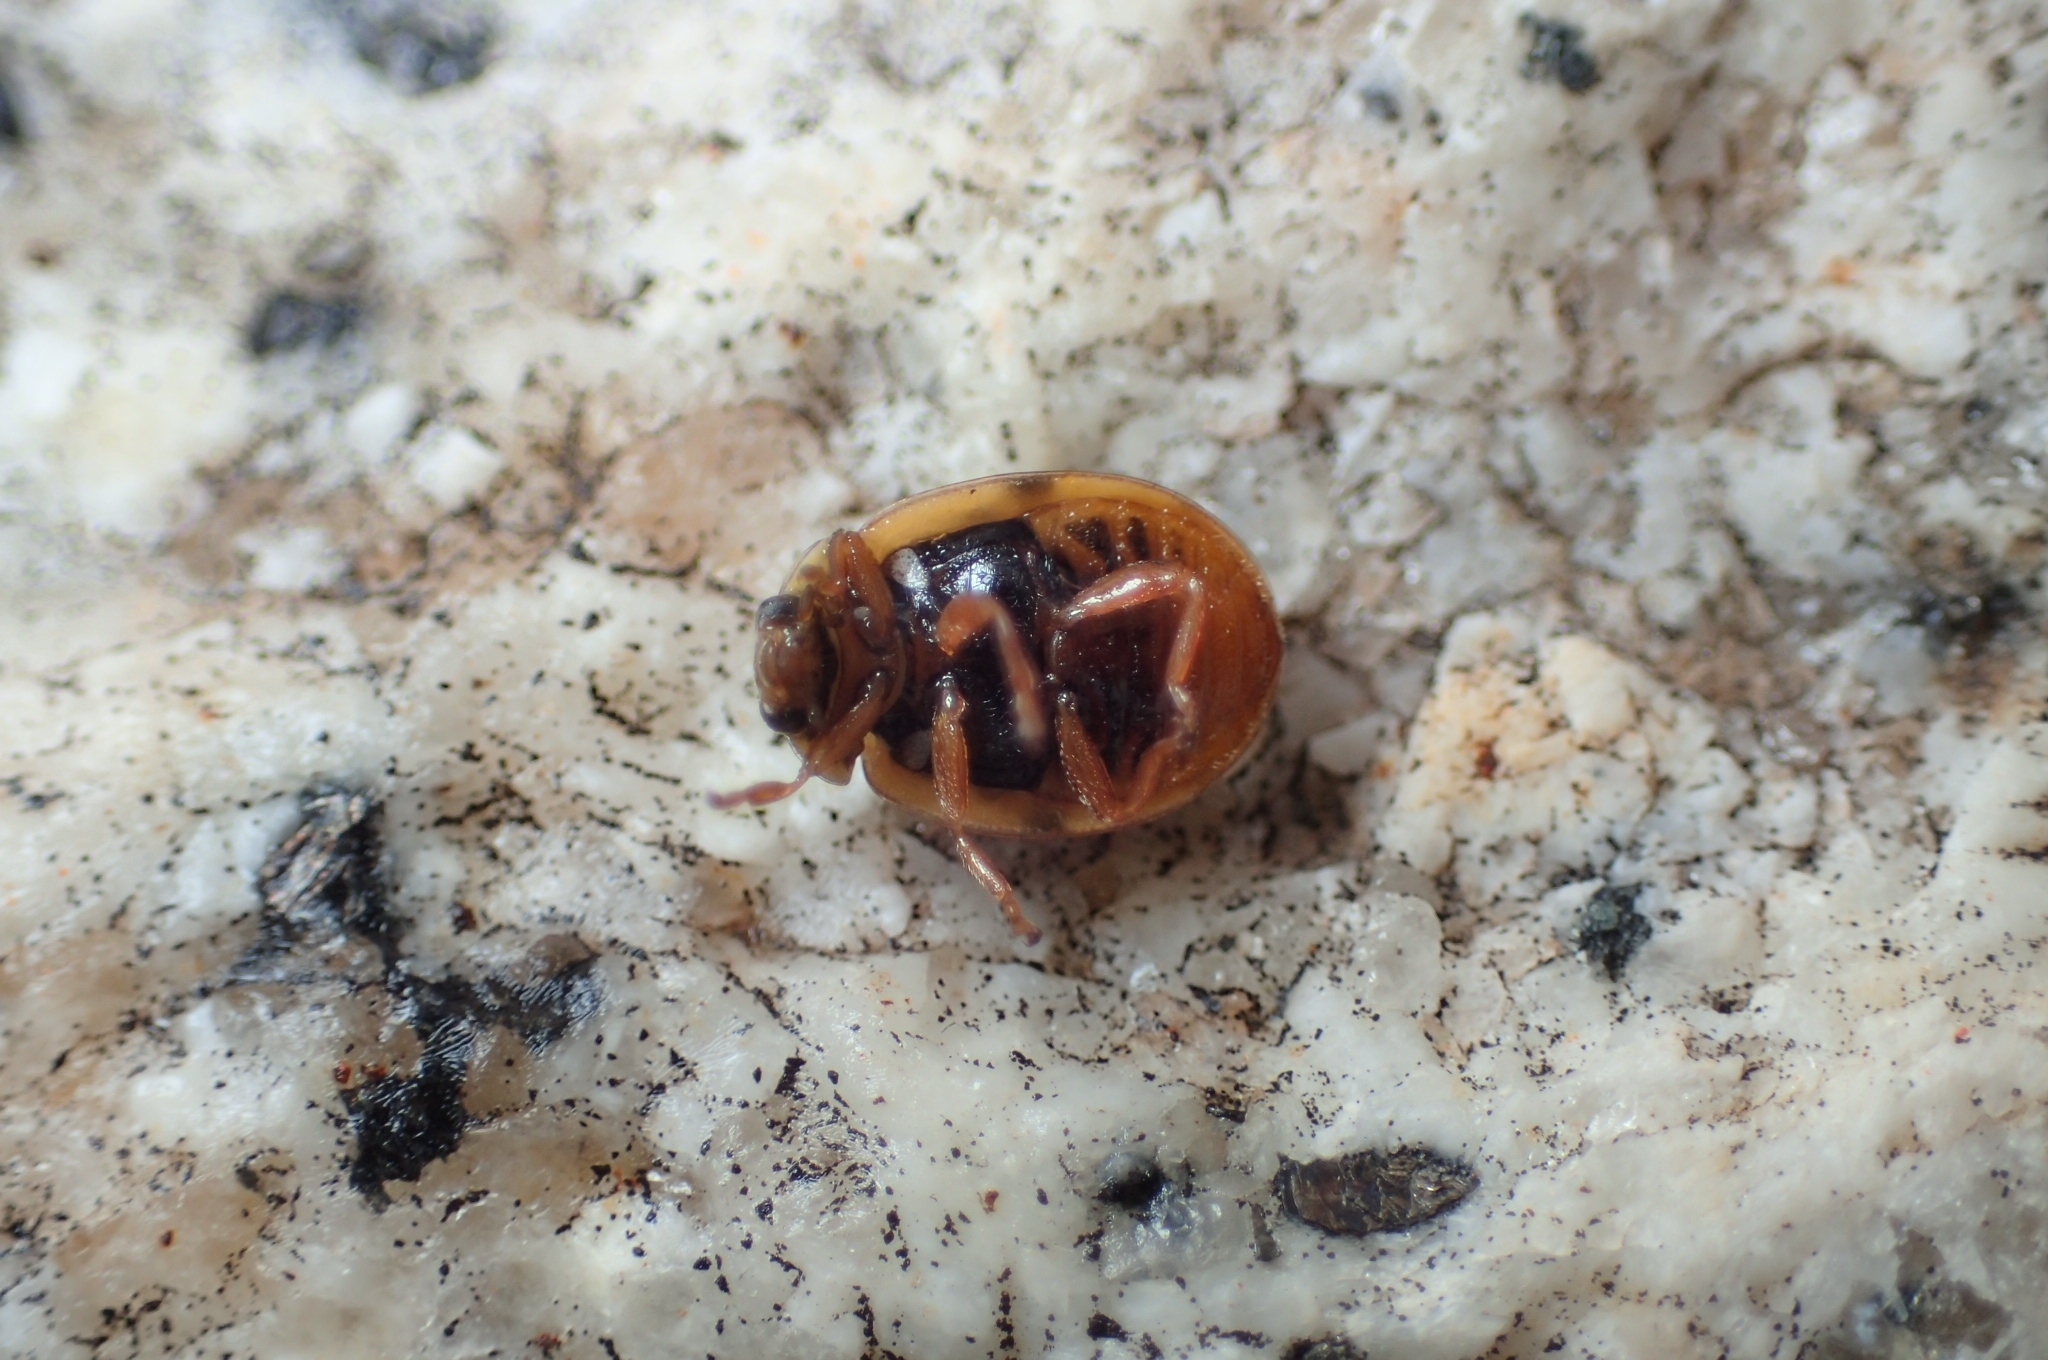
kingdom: Animalia
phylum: Arthropoda
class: Insecta
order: Coleoptera
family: Coccinellidae
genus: Adalia
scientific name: Adalia decempunctata
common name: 10-spot ladybird
